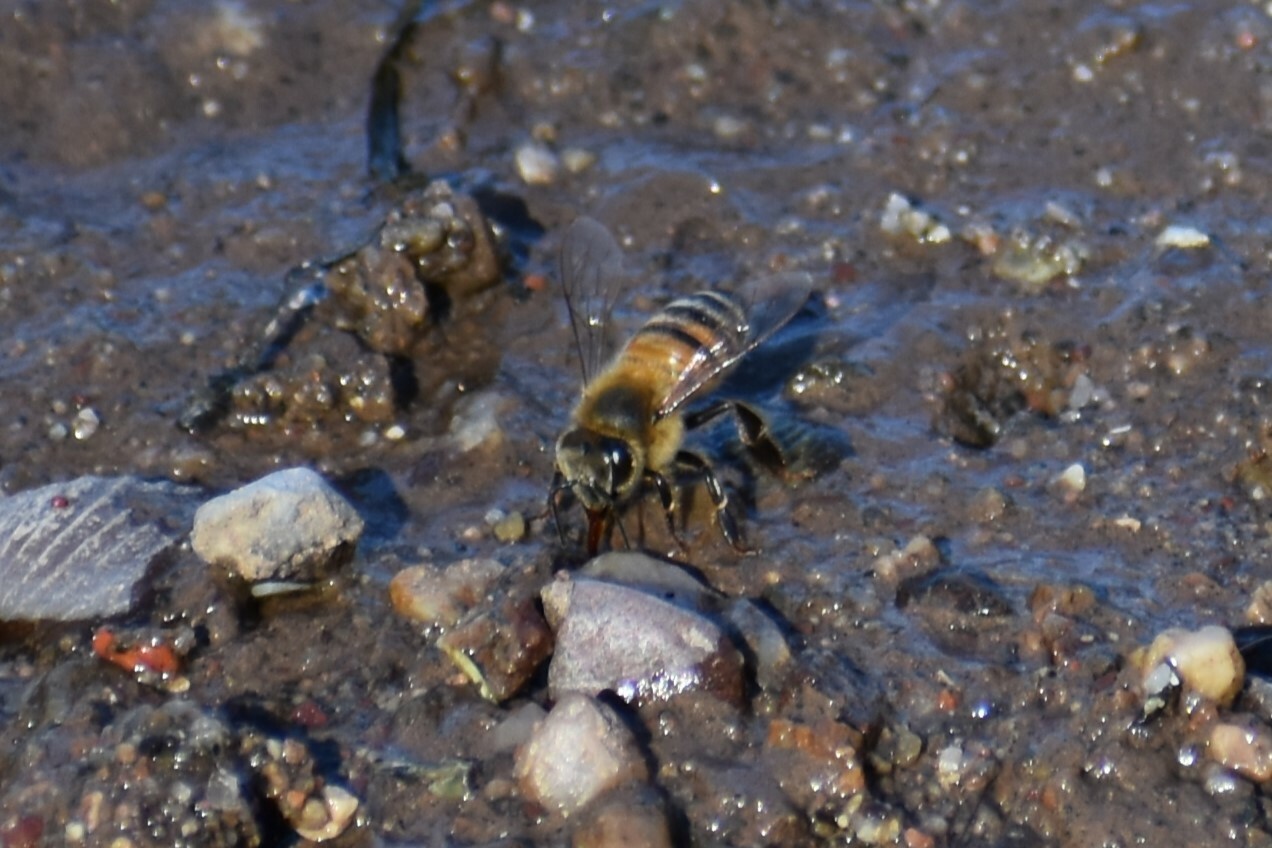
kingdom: Animalia
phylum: Arthropoda
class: Insecta
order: Hymenoptera
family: Apidae
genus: Apis
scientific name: Apis mellifera
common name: Honey bee
